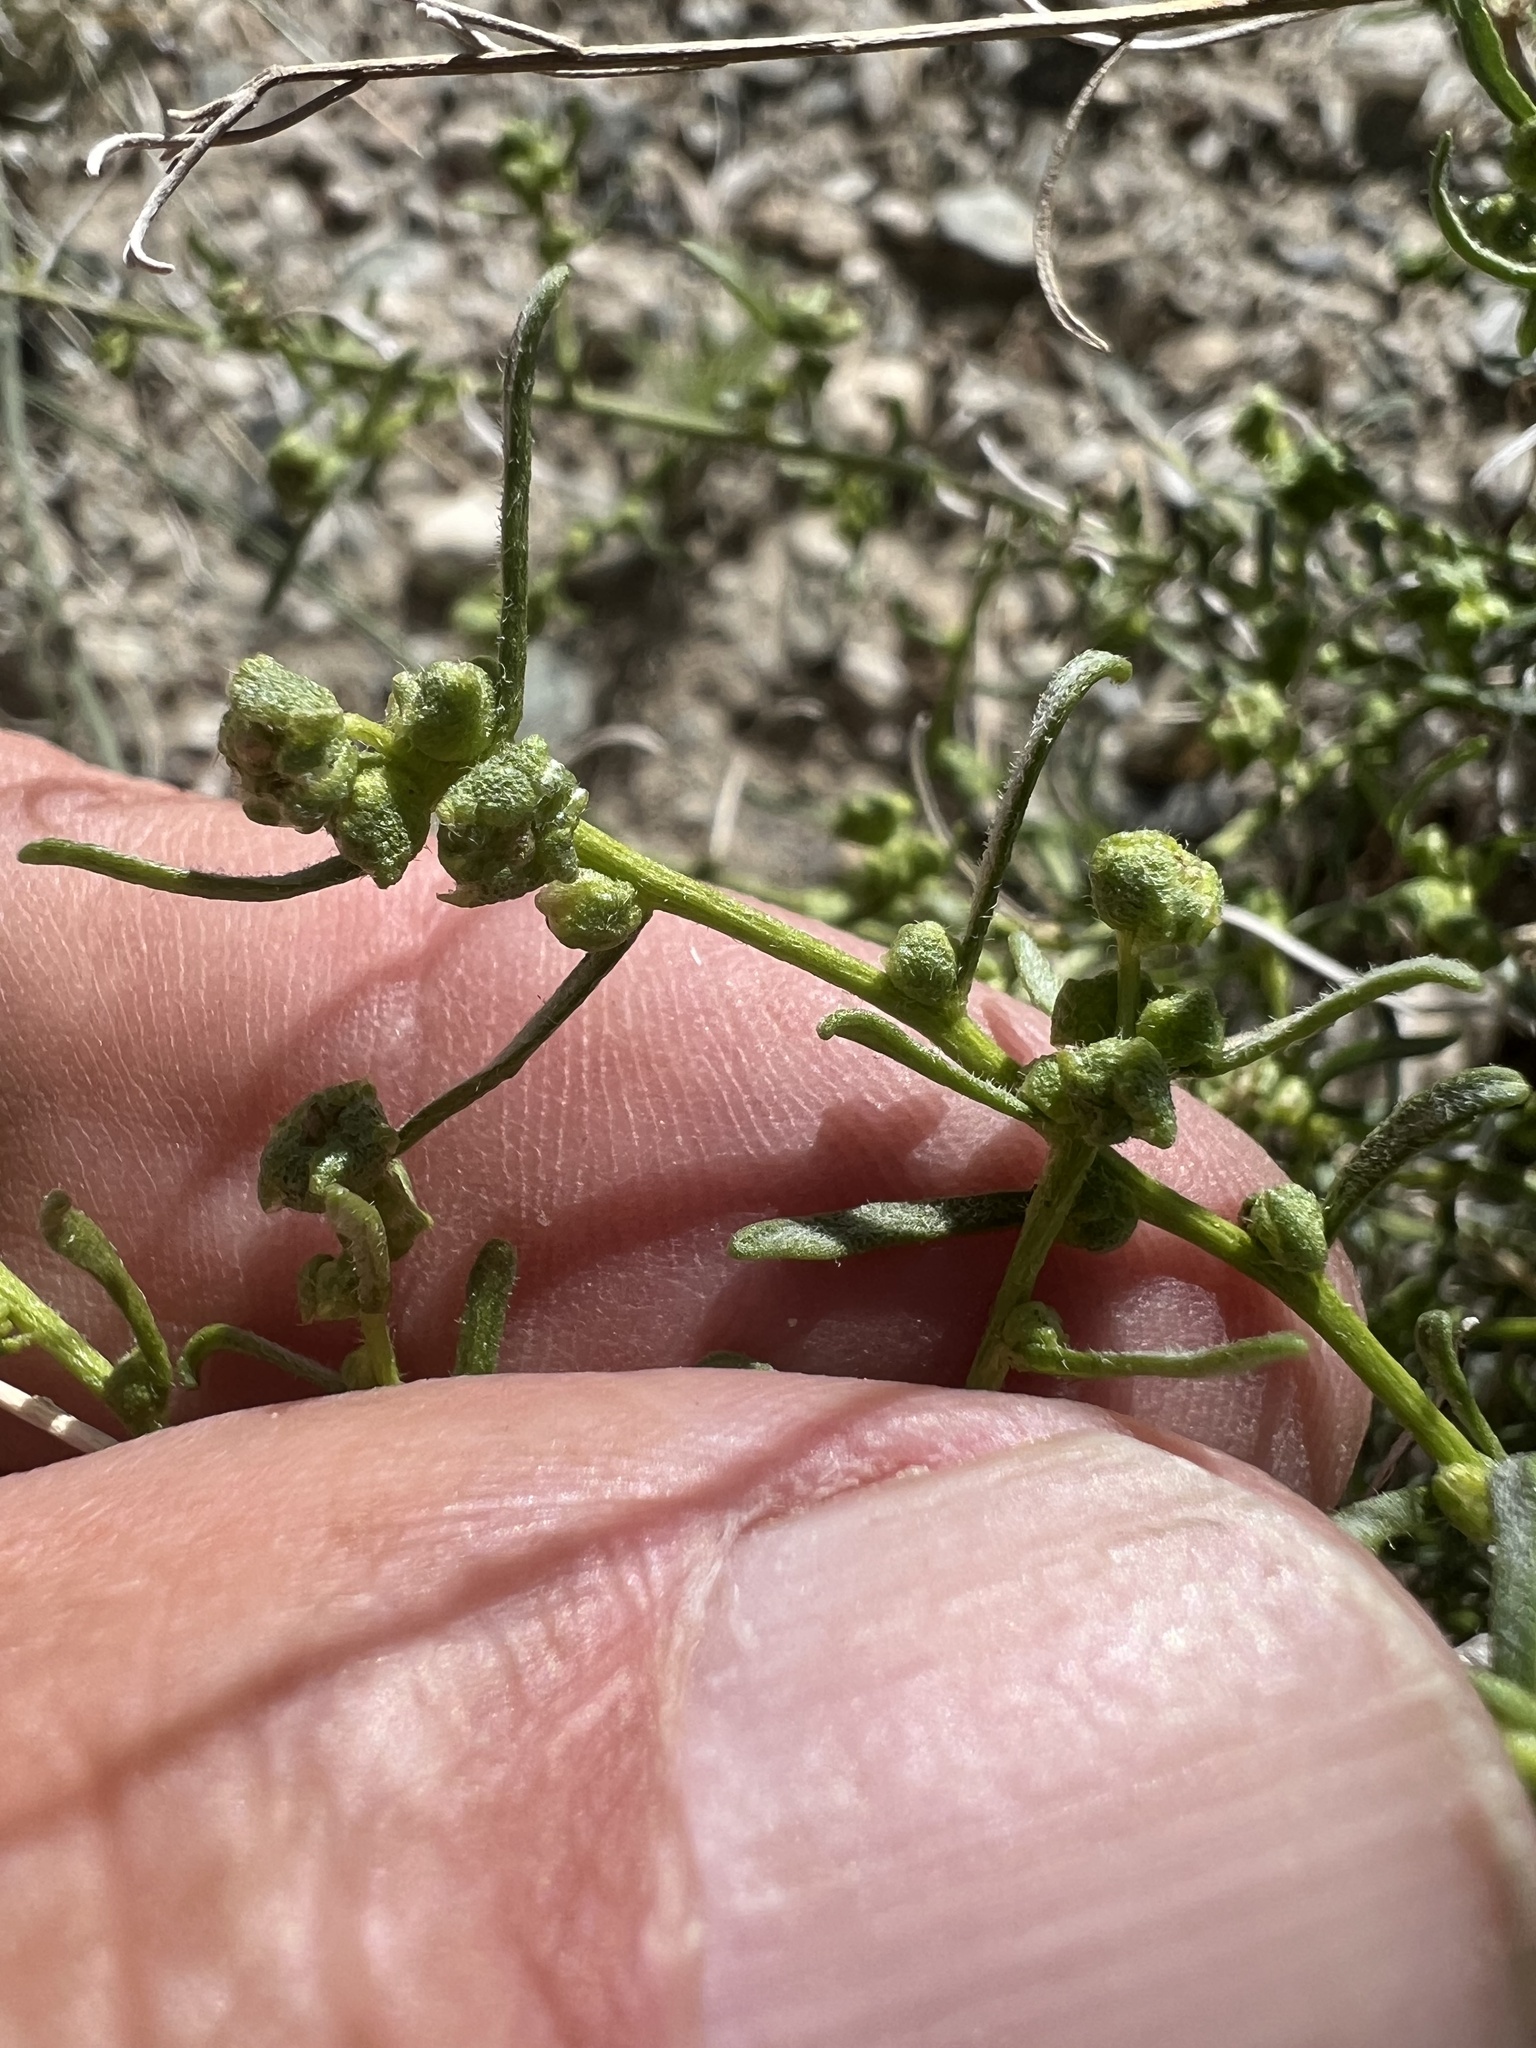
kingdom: Plantae
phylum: Tracheophyta
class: Magnoliopsida
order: Asterales
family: Asteraceae
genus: Ambrosia
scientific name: Ambrosia salsola
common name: Burrobrush
